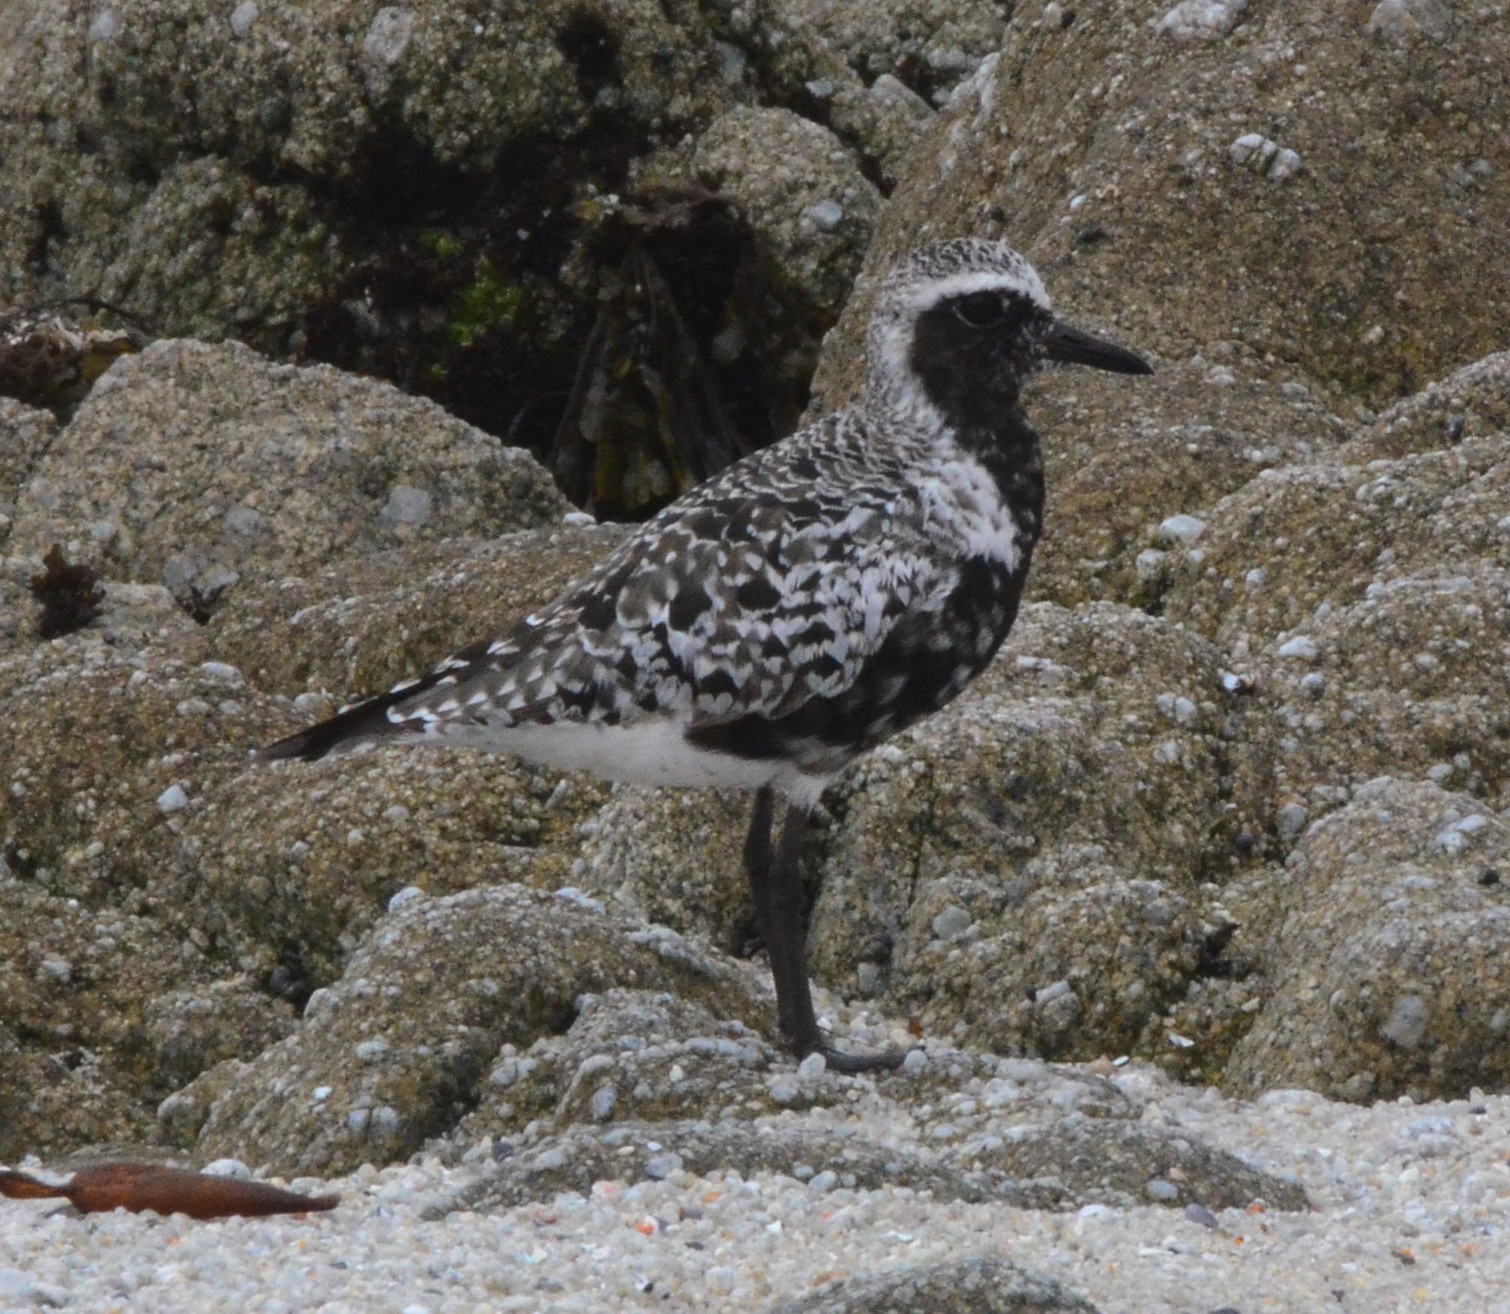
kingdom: Animalia
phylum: Chordata
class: Aves
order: Charadriiformes
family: Charadriidae
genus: Pluvialis
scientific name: Pluvialis squatarola
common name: Grey plover
